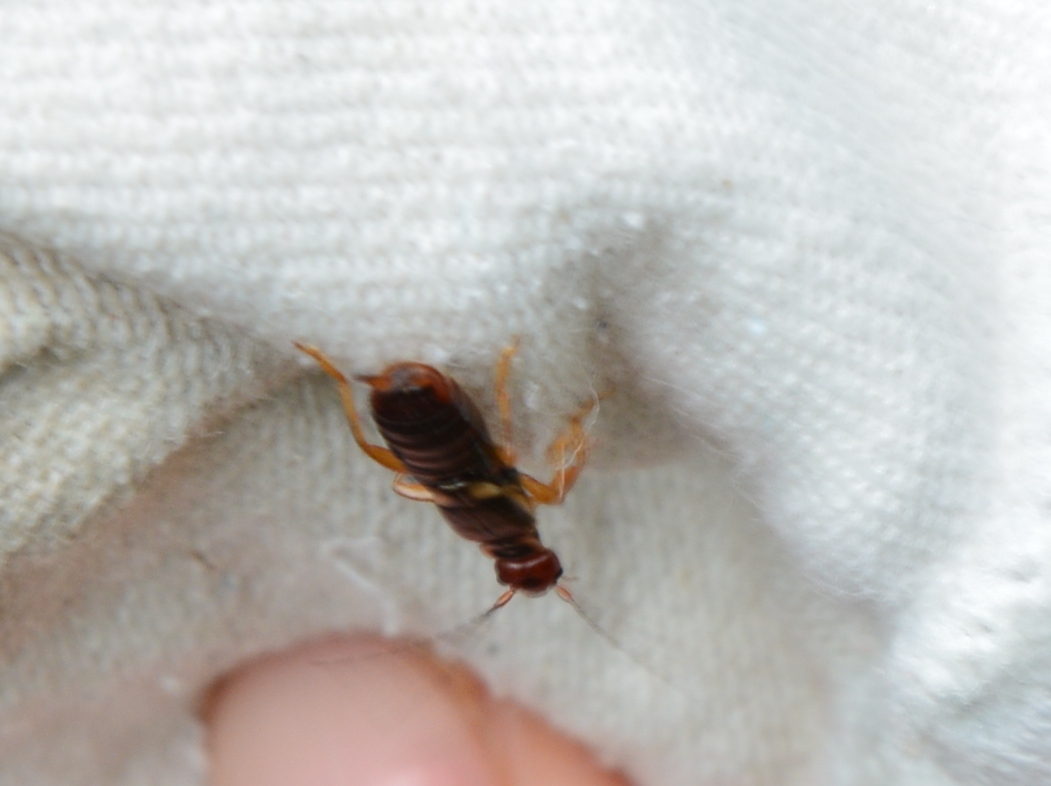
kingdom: Animalia
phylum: Arthropoda
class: Insecta
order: Dermaptera
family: Forficulidae
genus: Forficula
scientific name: Forficula
